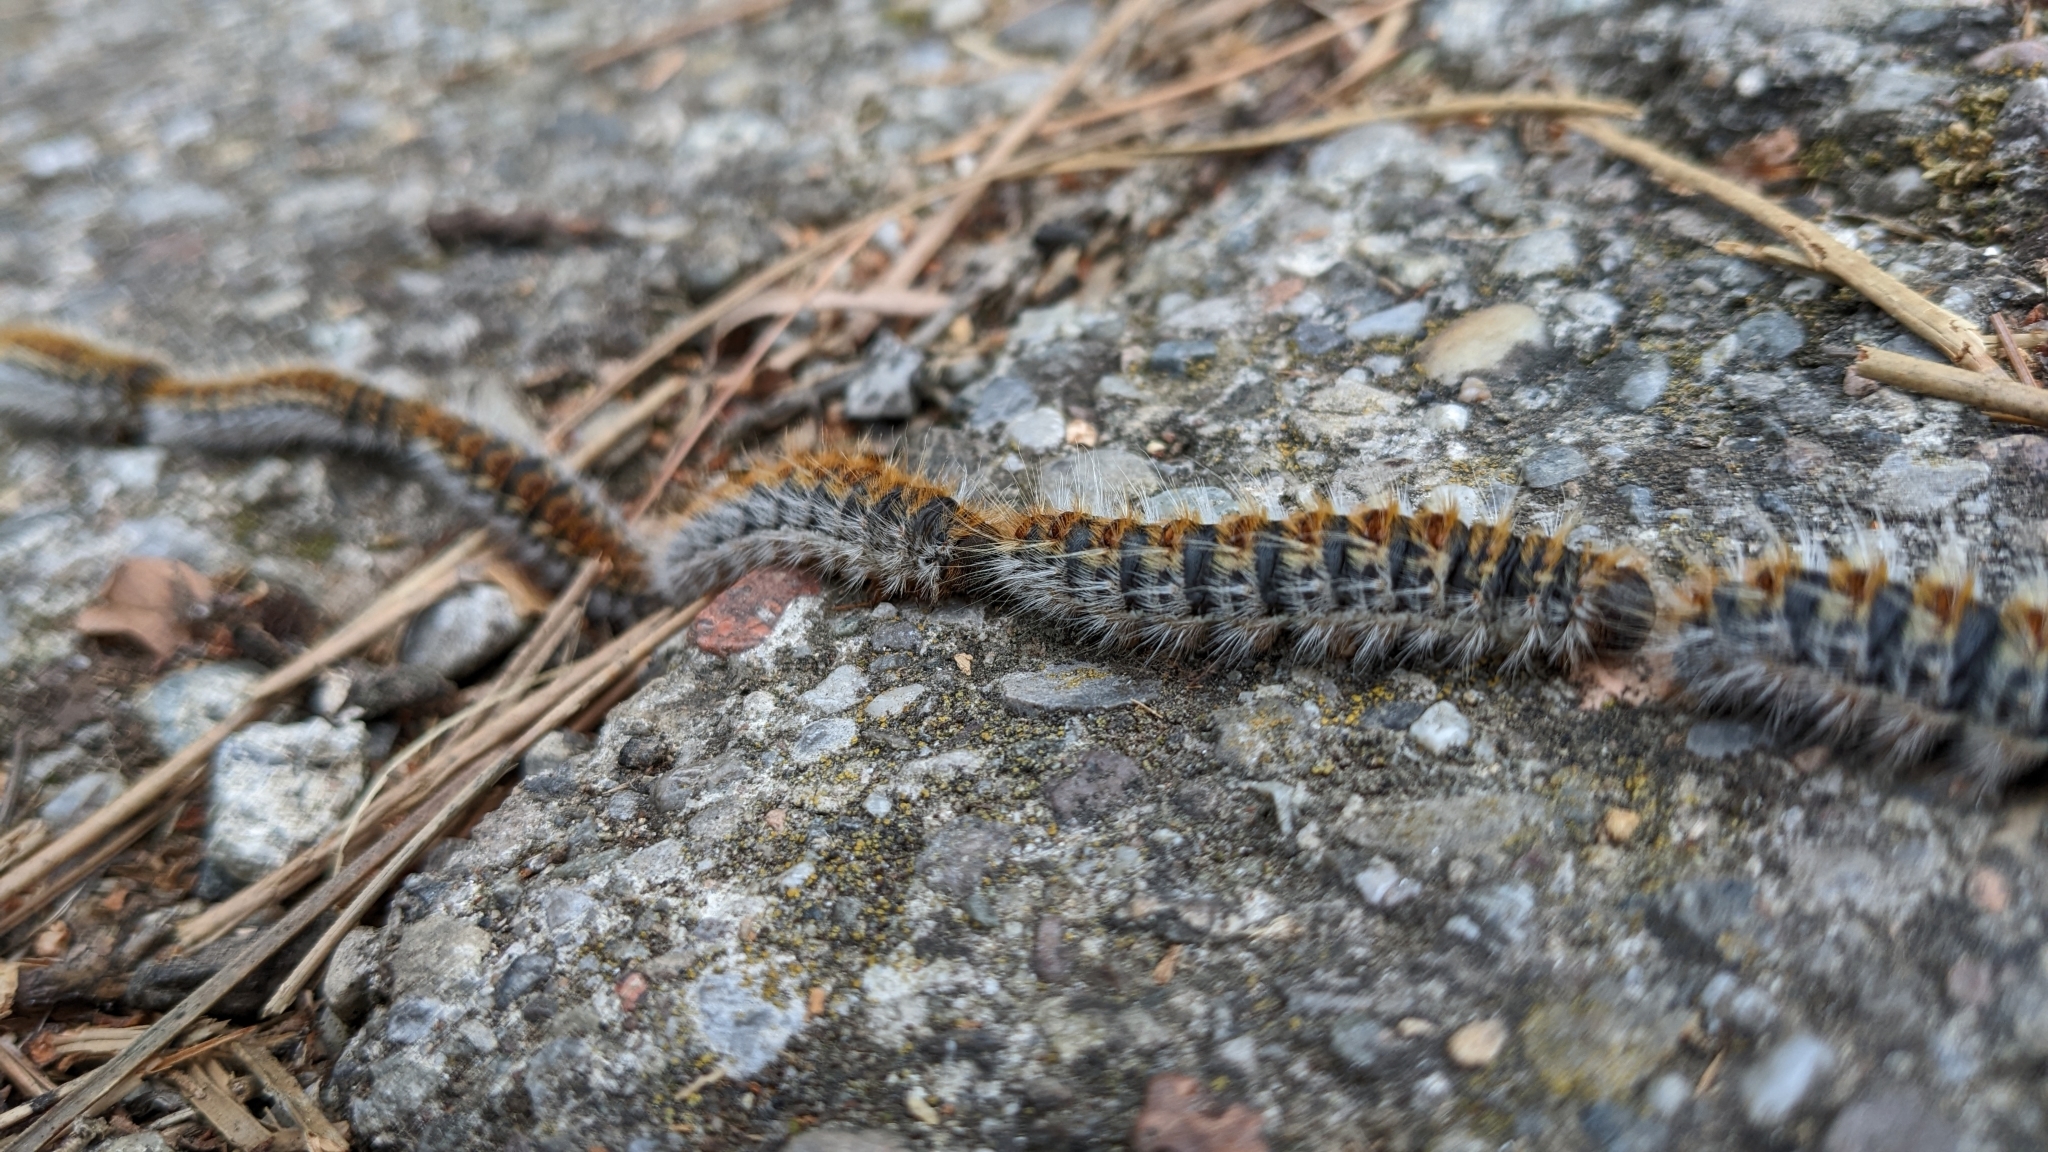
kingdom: Animalia
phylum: Arthropoda
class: Insecta
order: Lepidoptera
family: Notodontidae
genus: Thaumetopoea
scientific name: Thaumetopoea pityocampa
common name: Pine processionary
